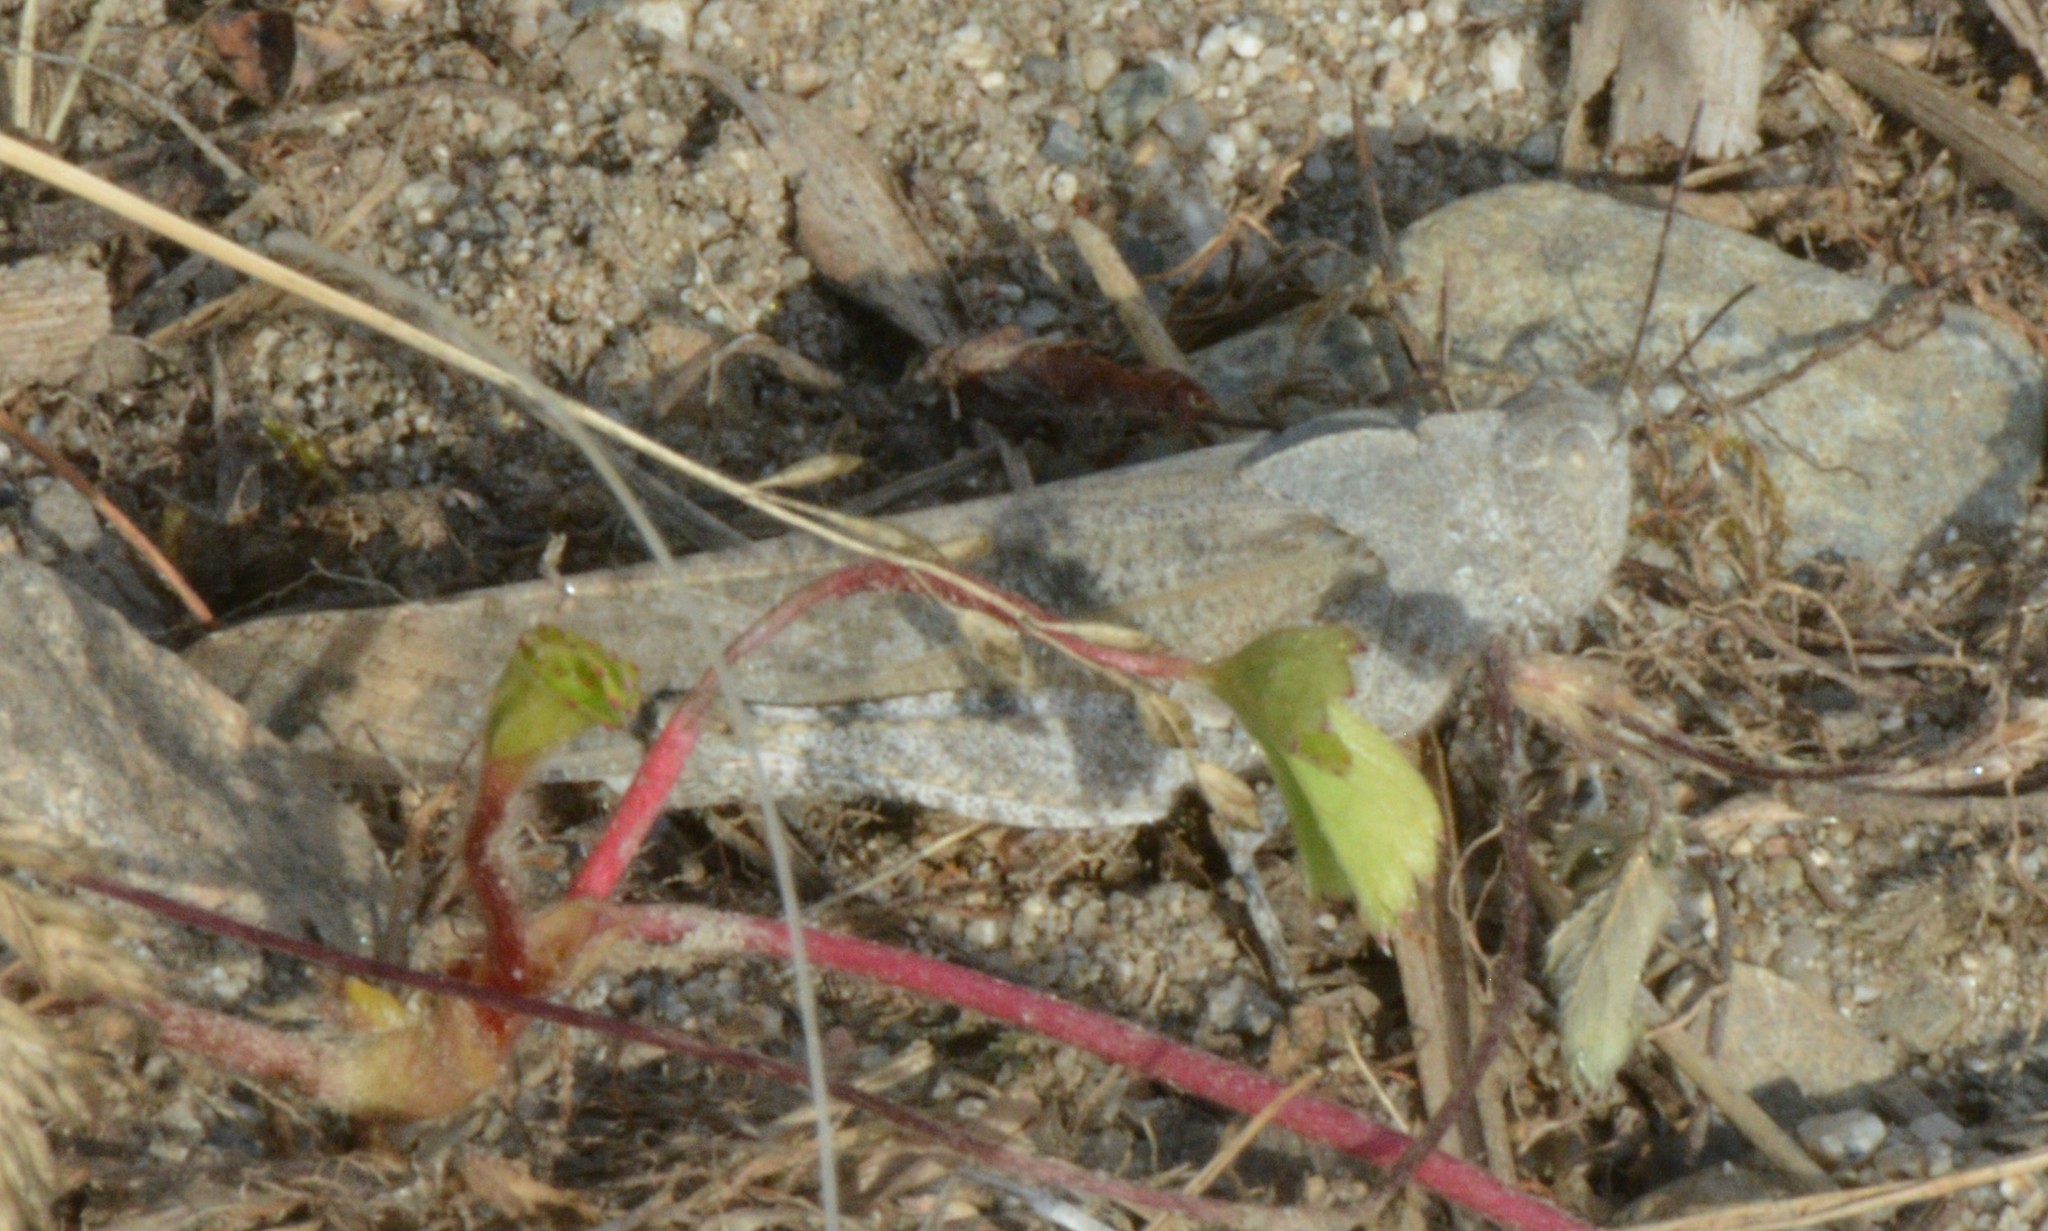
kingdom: Animalia
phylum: Arthropoda
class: Insecta
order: Orthoptera
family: Acrididae
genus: Dissosteira
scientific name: Dissosteira carolina
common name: Carolina grasshopper
